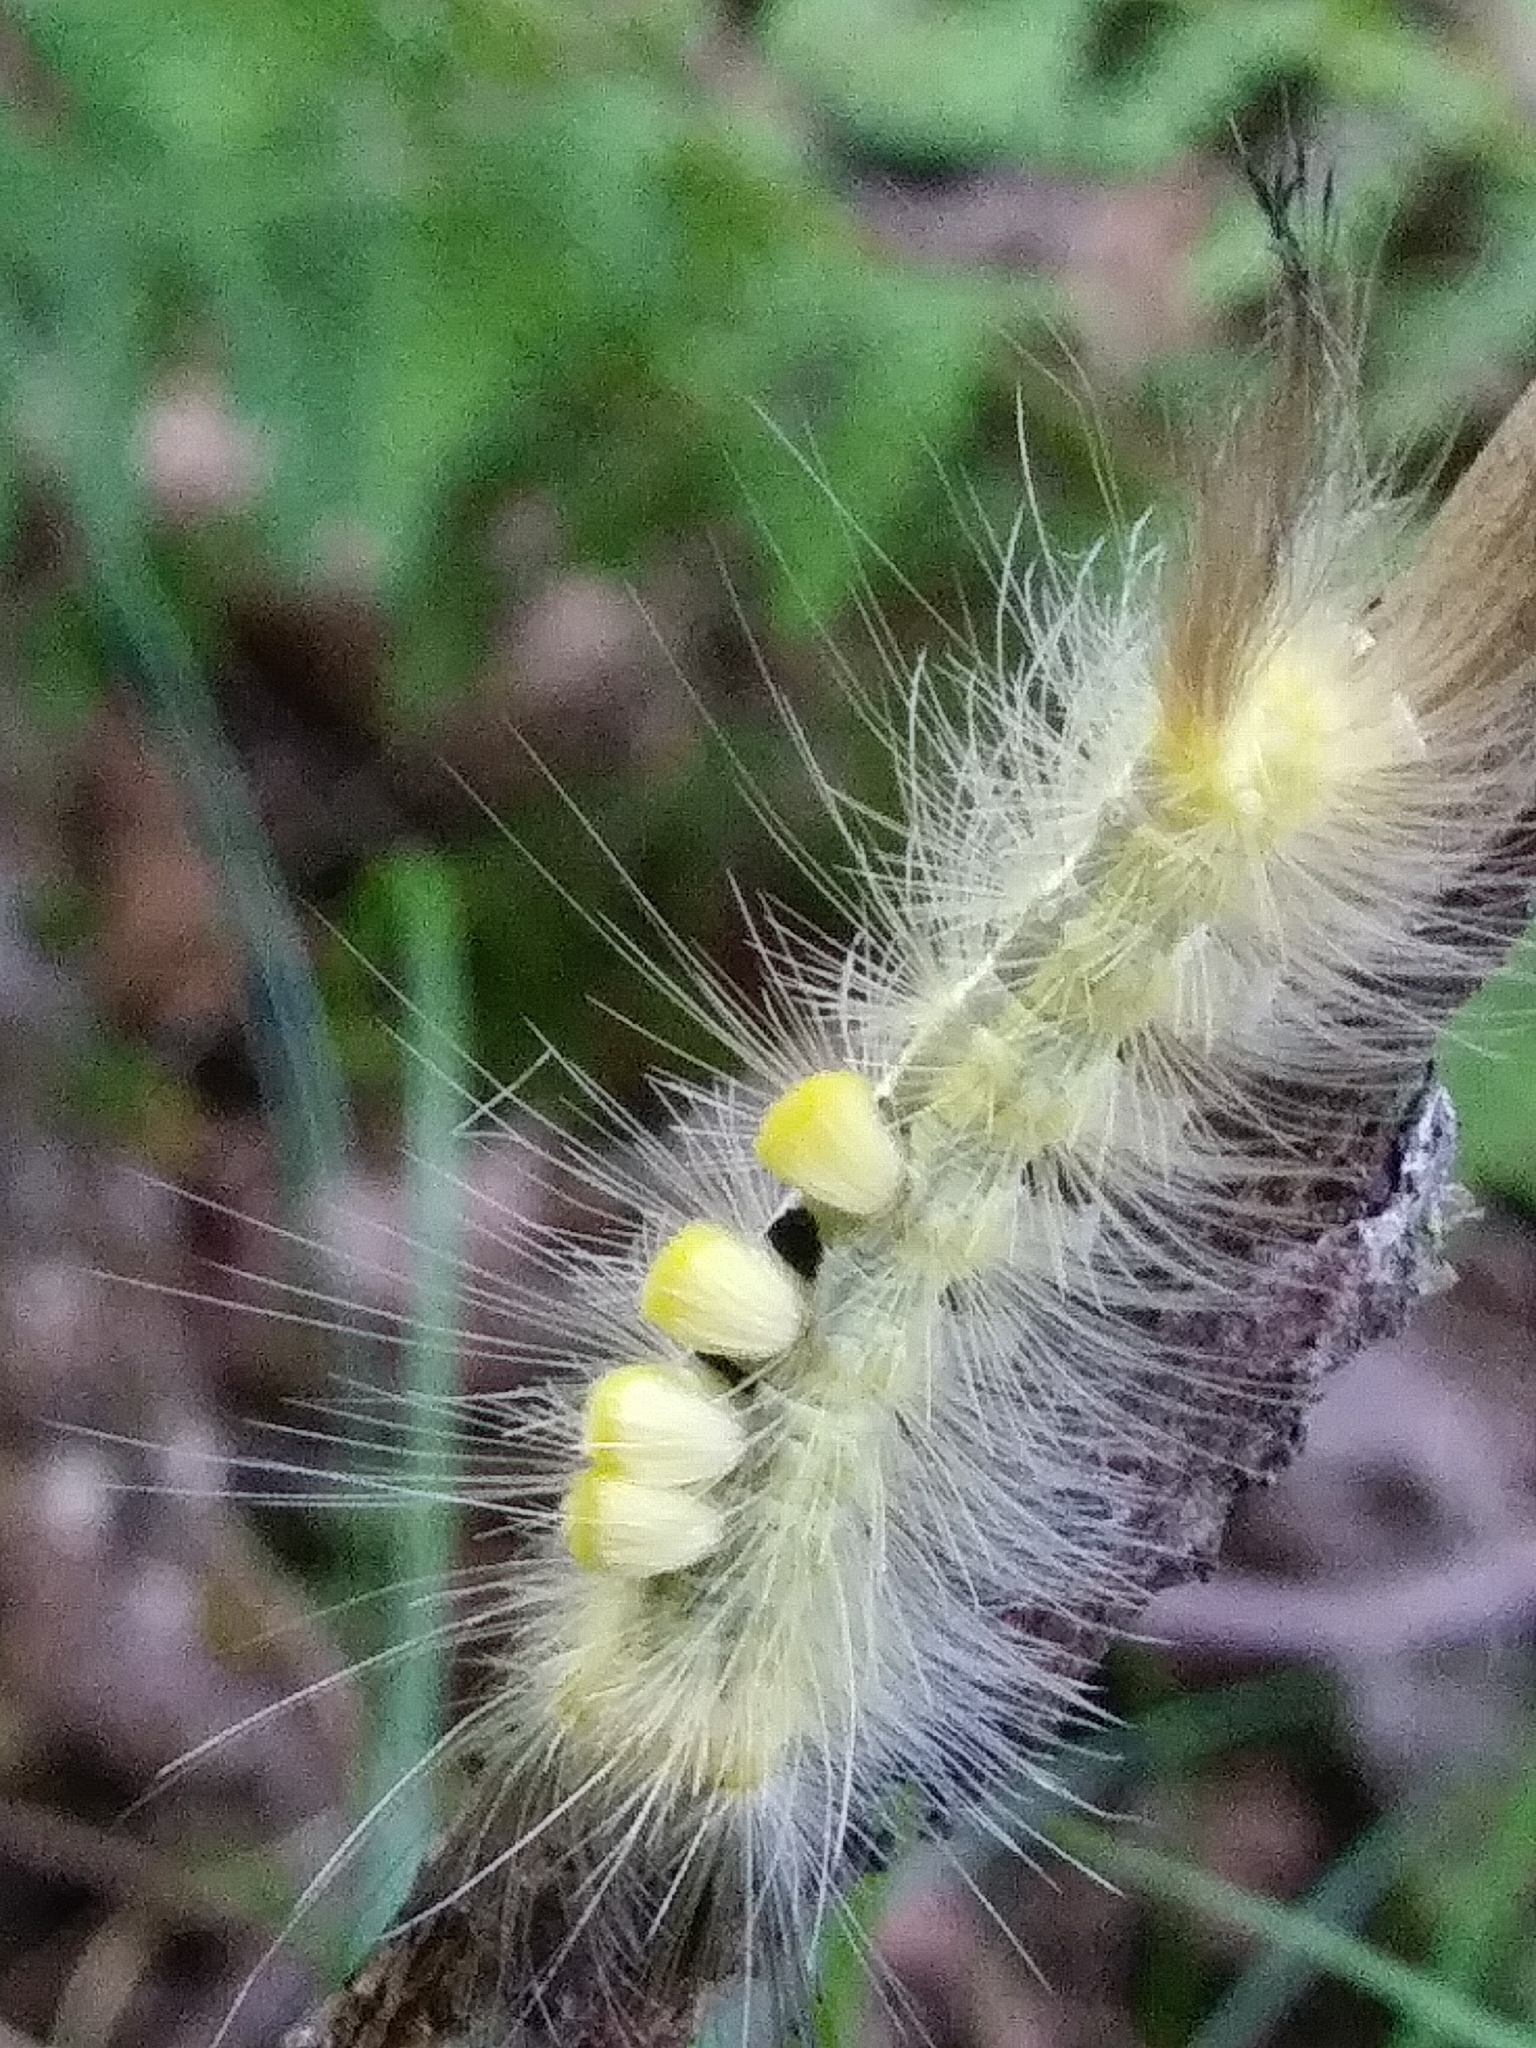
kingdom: Animalia
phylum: Arthropoda
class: Insecta
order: Lepidoptera
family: Erebidae
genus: Orgyia
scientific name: Orgyia definita
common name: Definite tussock moth
